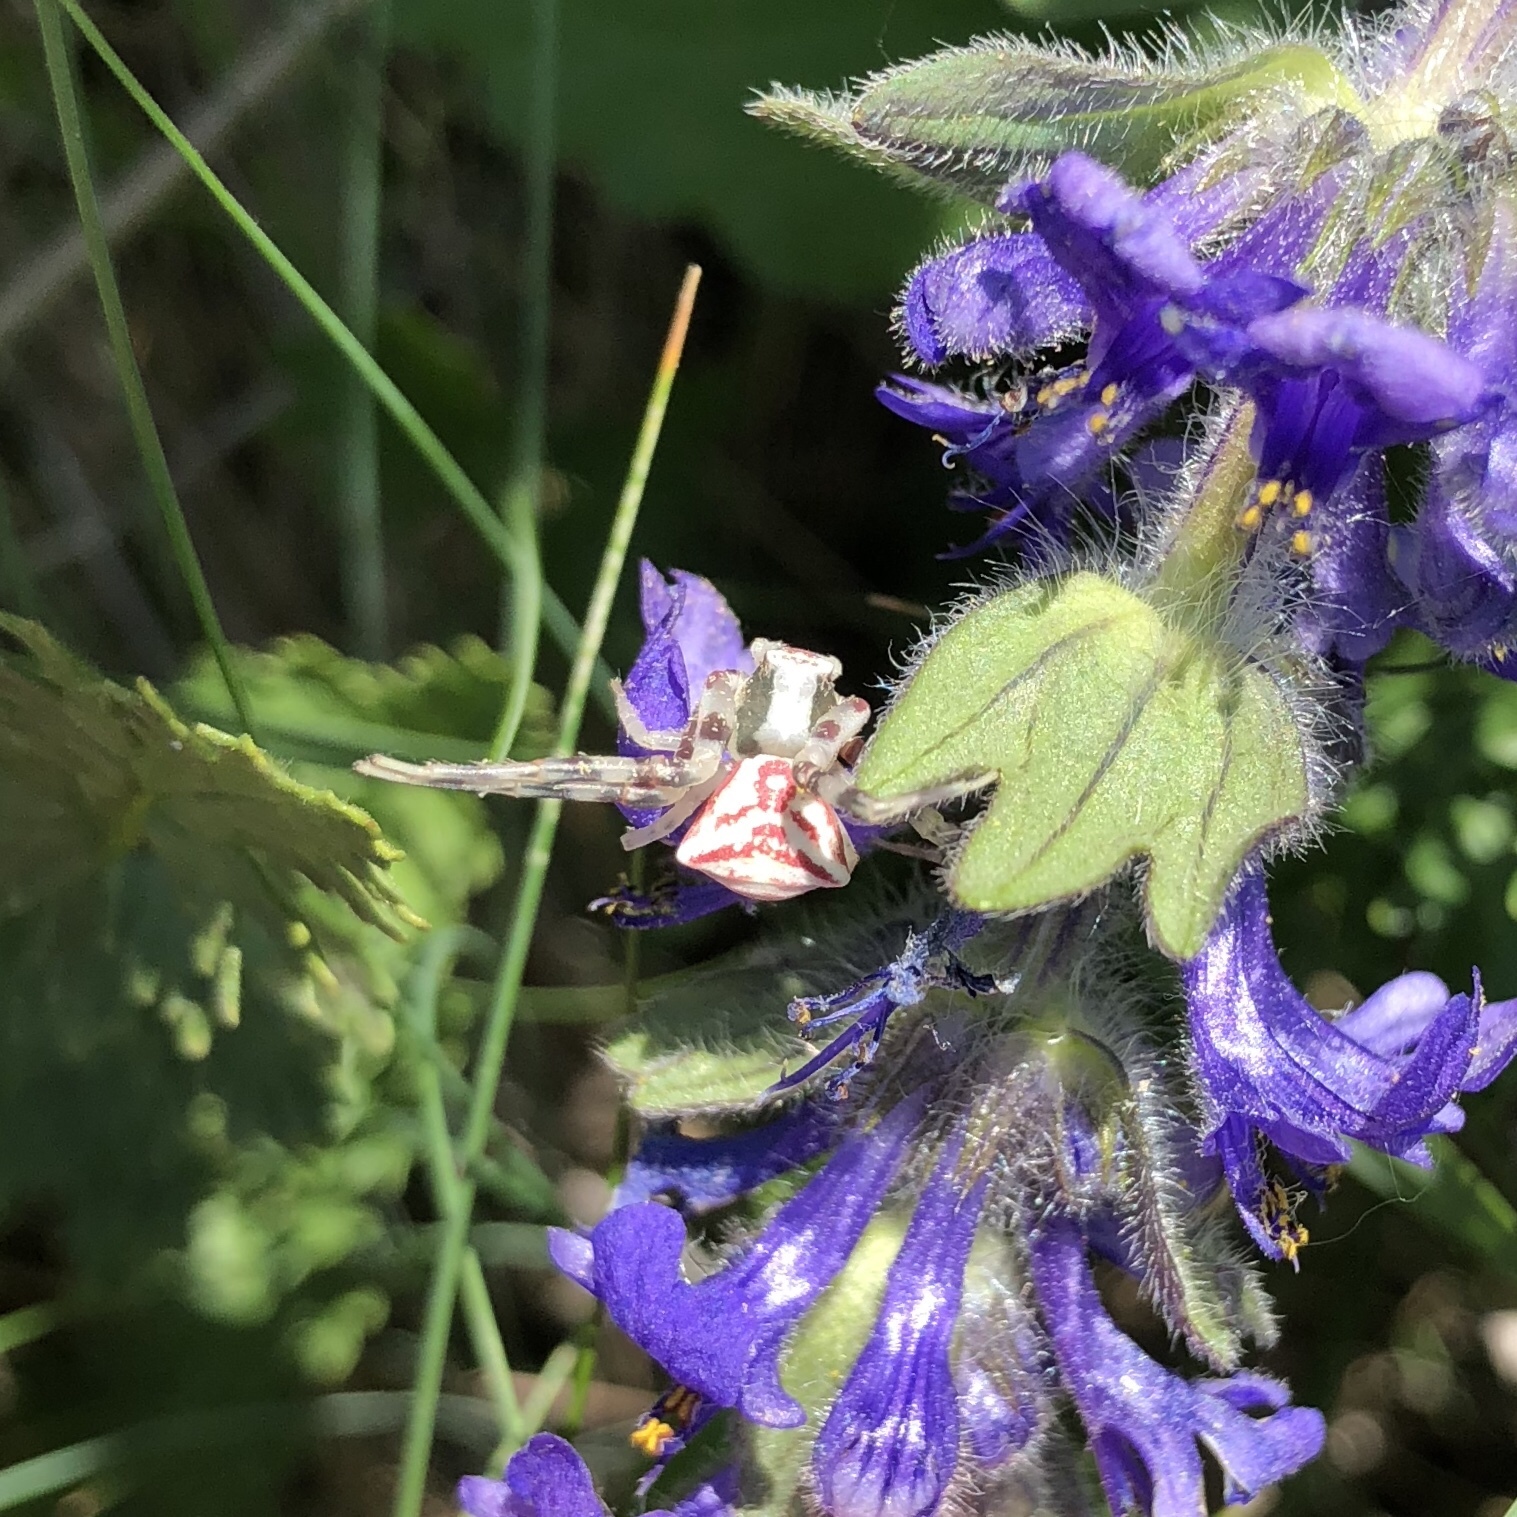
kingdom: Animalia
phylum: Arthropoda
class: Arachnida
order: Araneae
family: Thomisidae
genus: Thomisus
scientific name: Thomisus onustus
